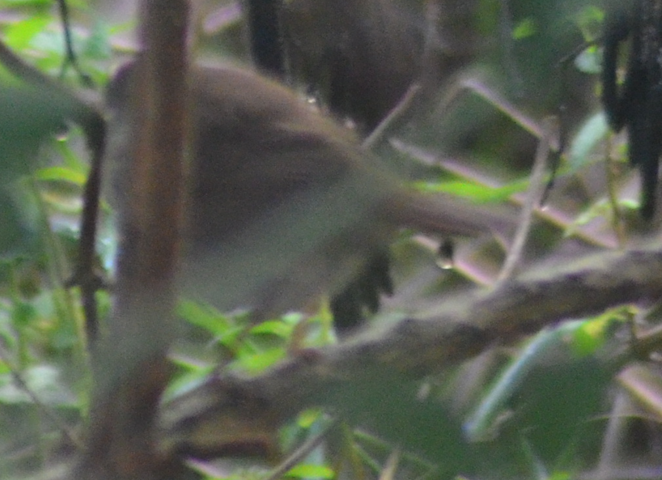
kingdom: Animalia
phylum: Chordata
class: Aves
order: Passeriformes
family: Cettiidae
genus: Cettia
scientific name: Cettia cetti
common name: Cetti's warbler
